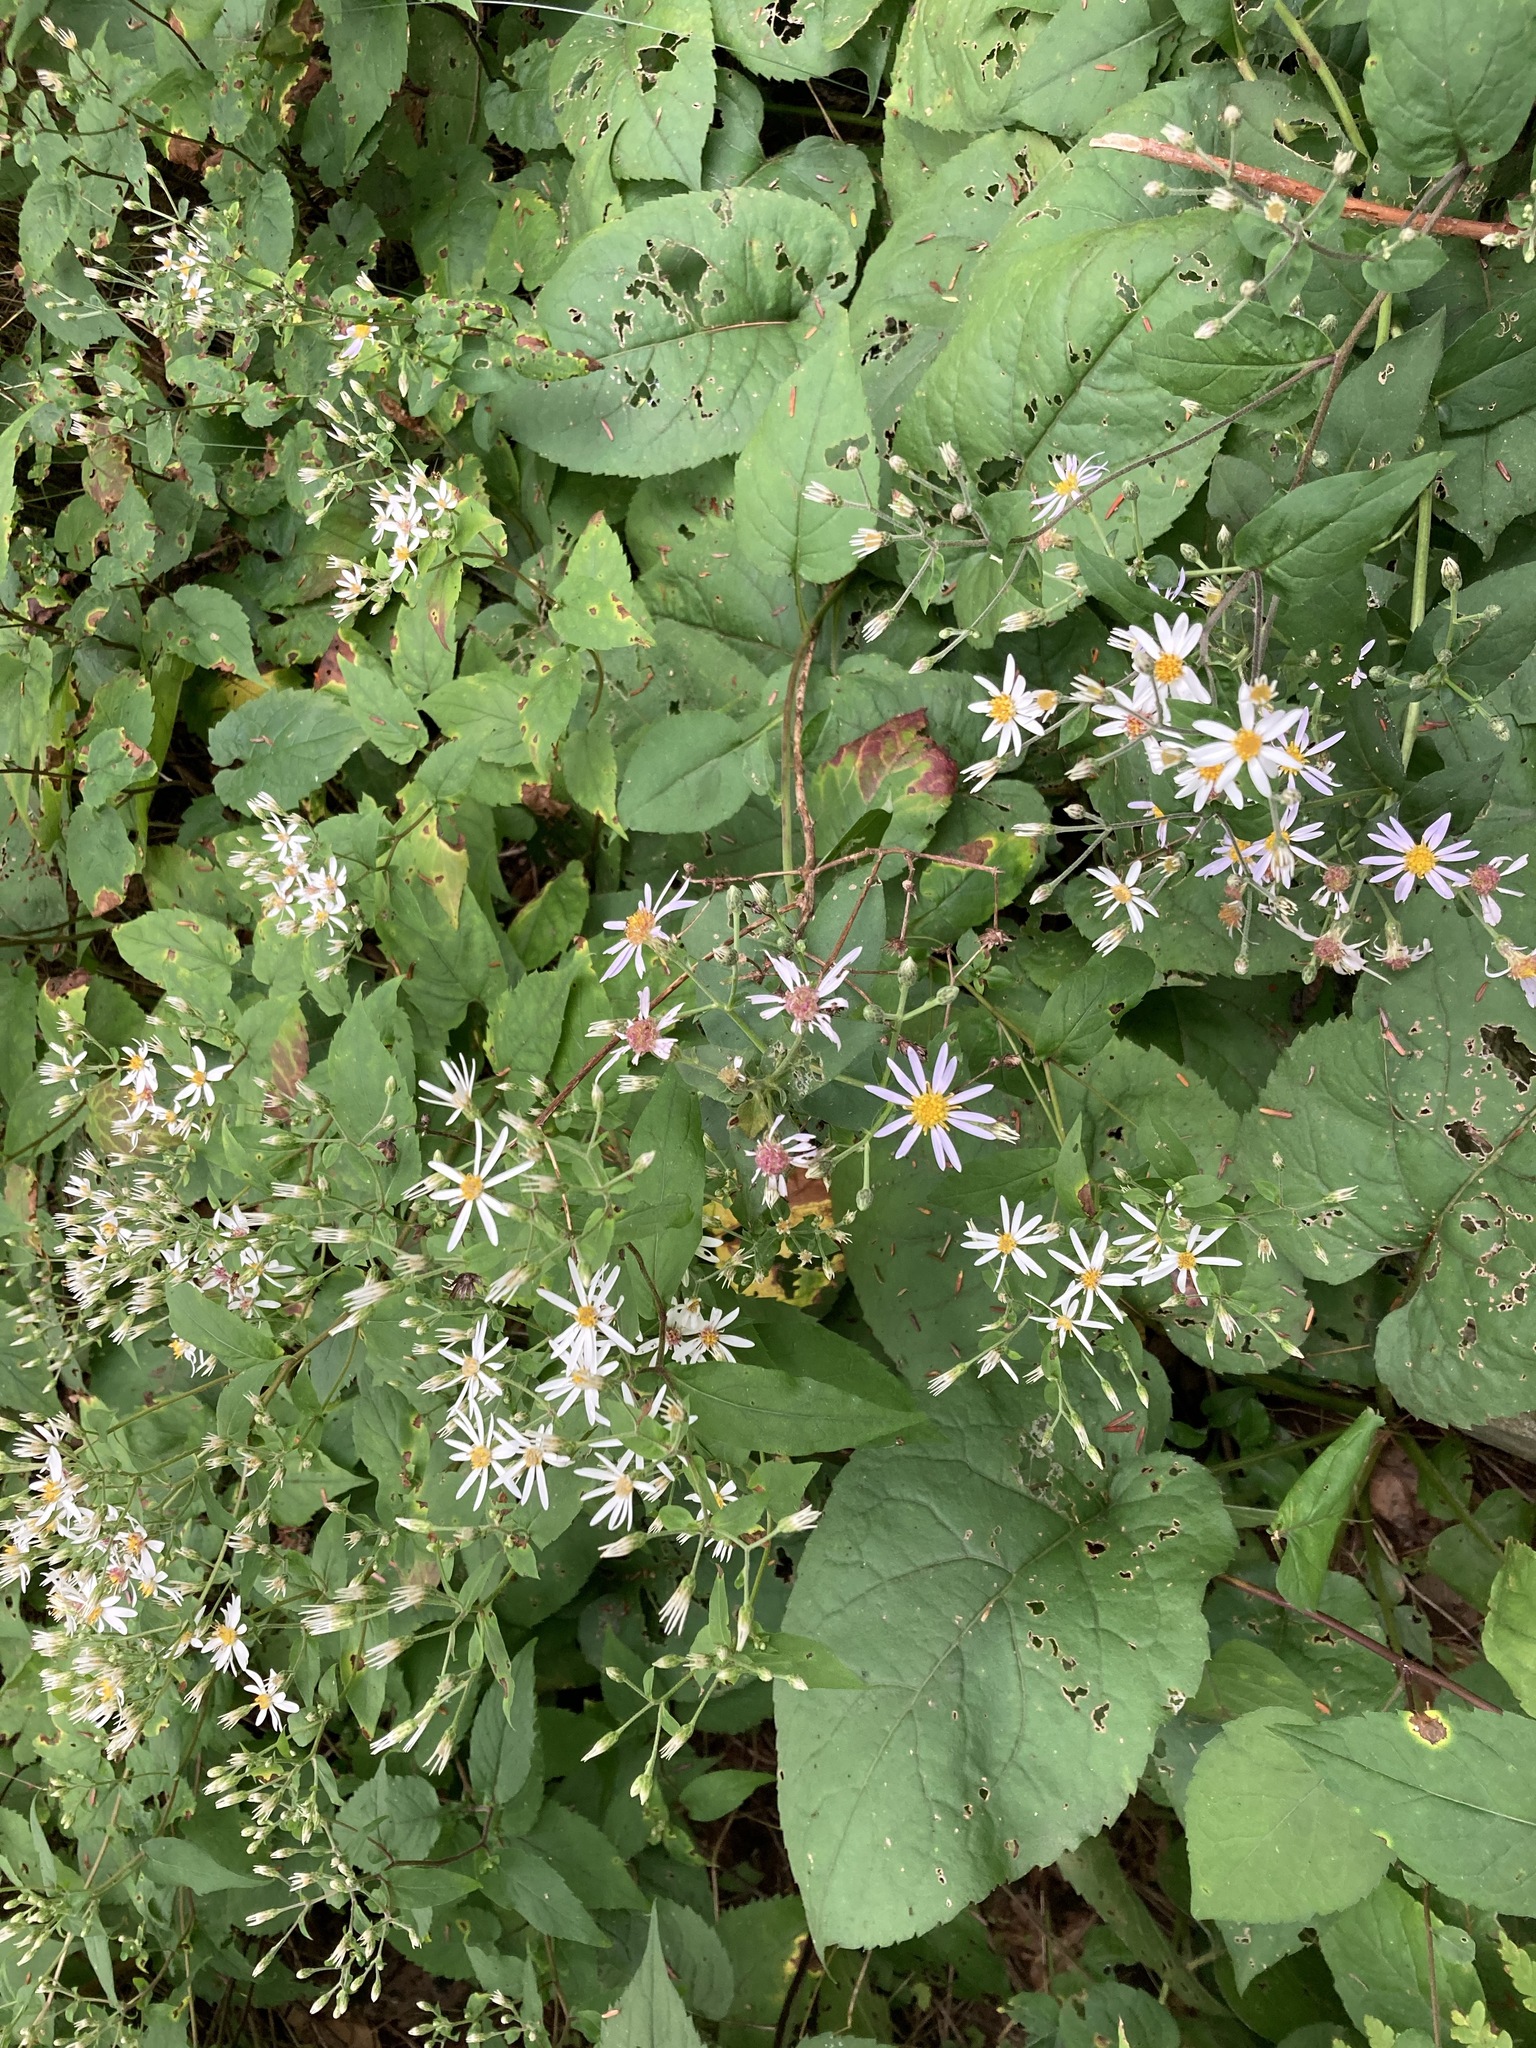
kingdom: Plantae
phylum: Tracheophyta
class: Magnoliopsida
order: Asterales
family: Asteraceae
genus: Eurybia
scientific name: Eurybia macrophylla
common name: Big-leaved aster
